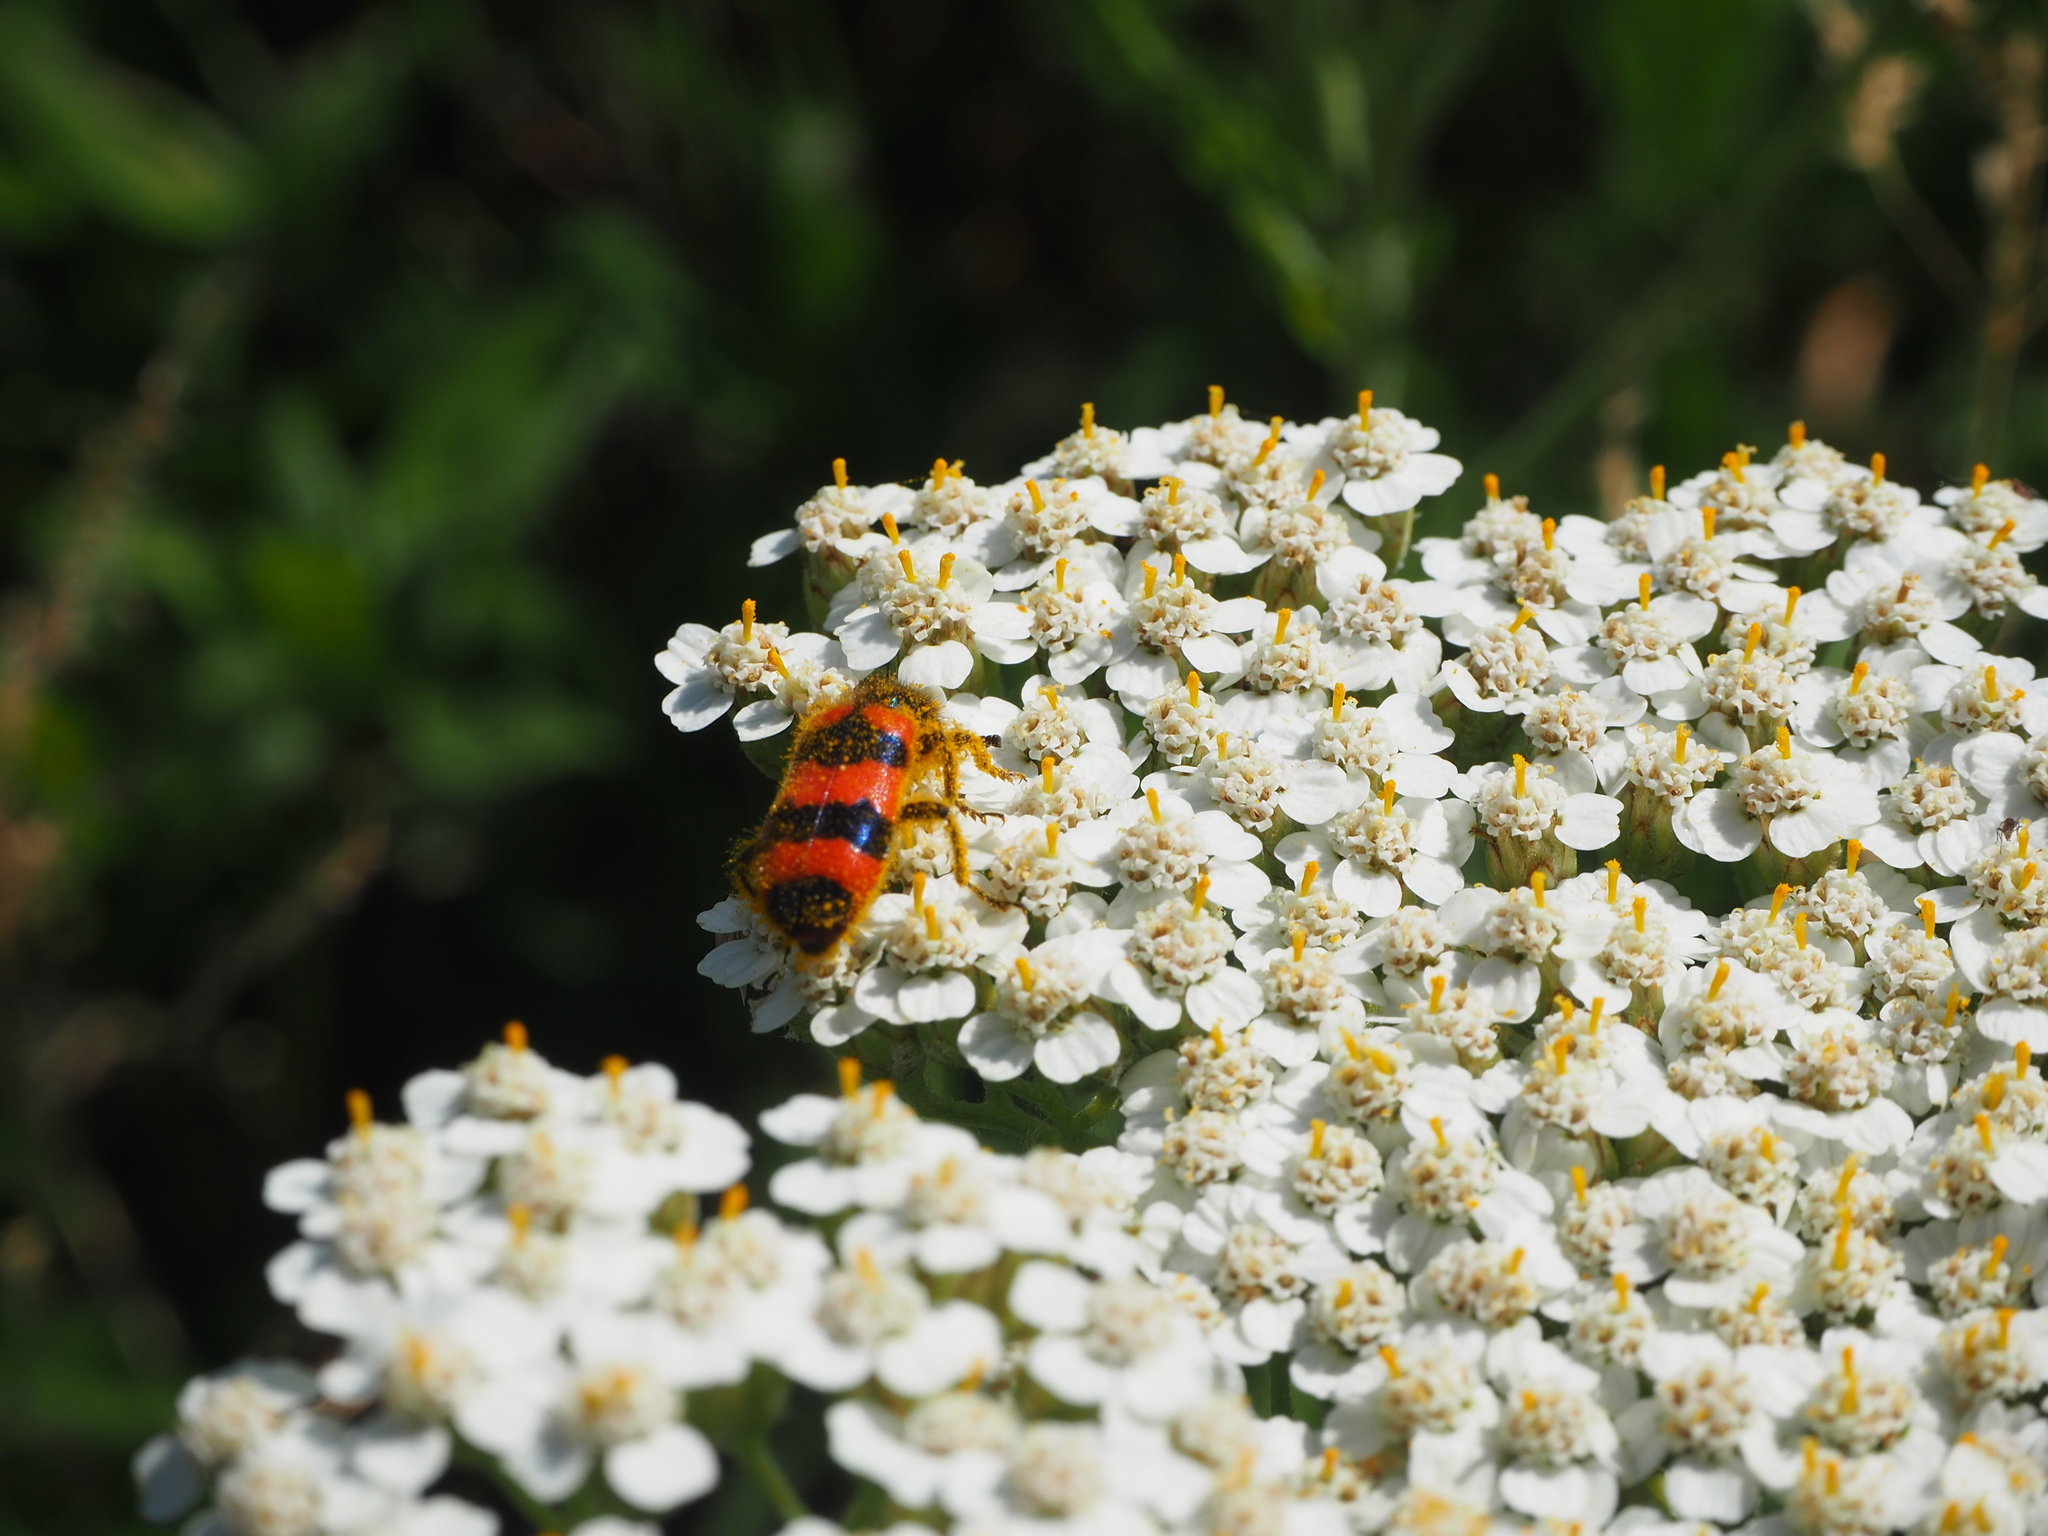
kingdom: Animalia
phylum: Arthropoda
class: Insecta
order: Coleoptera
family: Cleridae
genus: Trichodes
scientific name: Trichodes apiarius
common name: Bee-eating beetle
